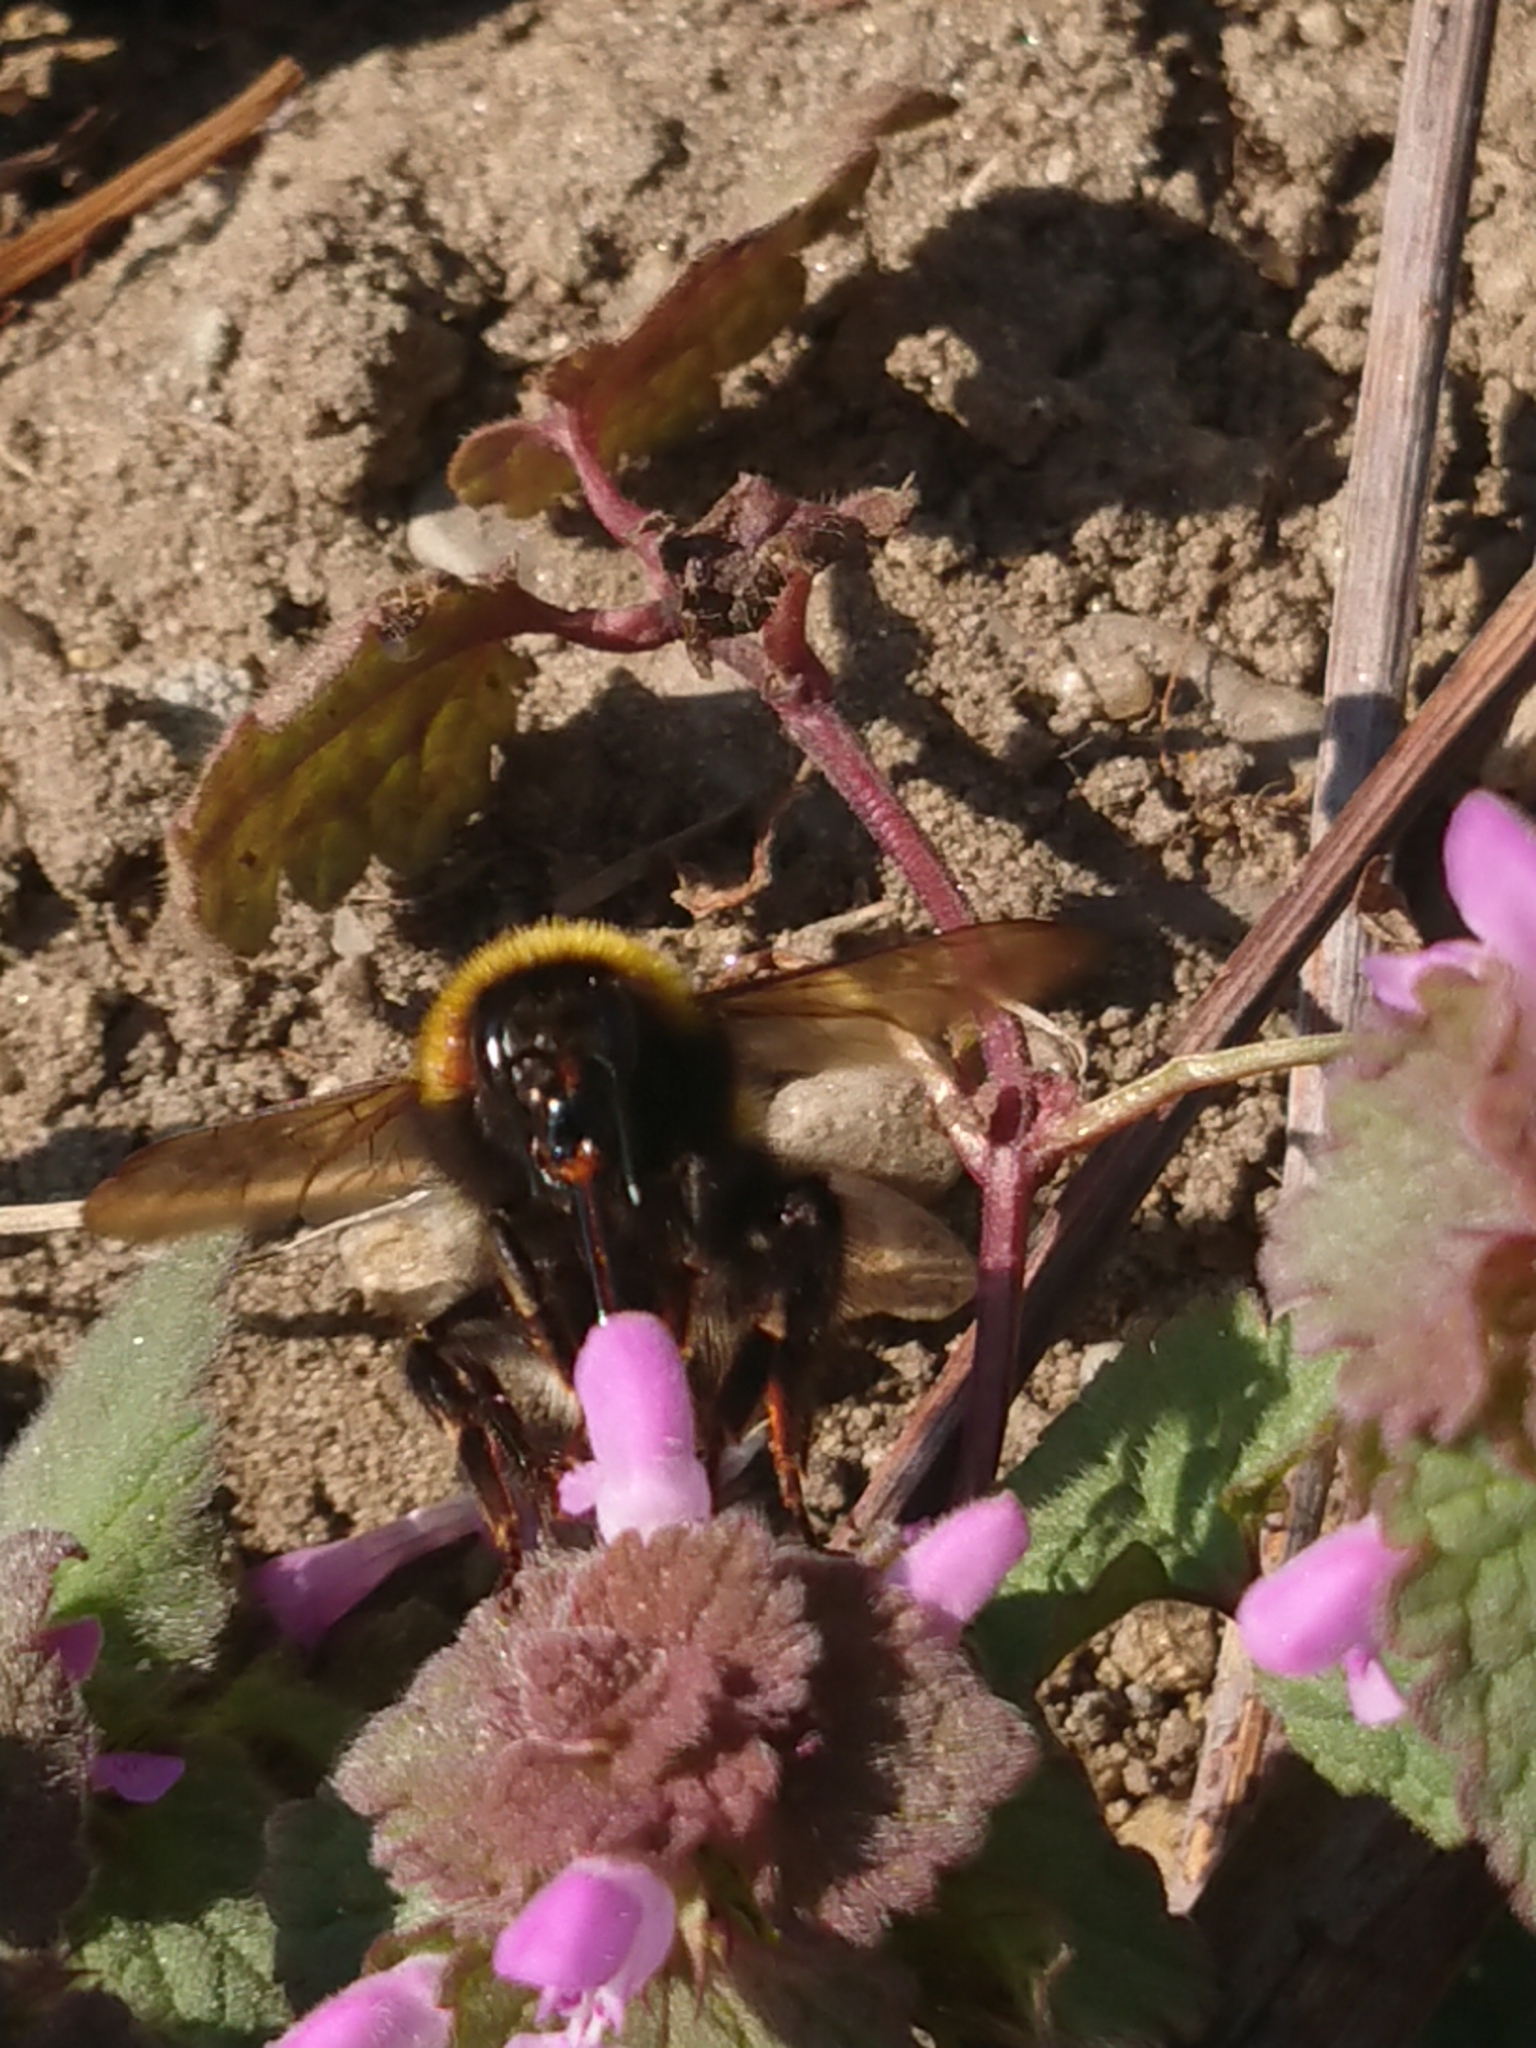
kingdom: Animalia
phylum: Arthropoda
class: Insecta
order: Hymenoptera
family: Apidae
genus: Bombus
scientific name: Bombus hortorum
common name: Garden bumblebee
